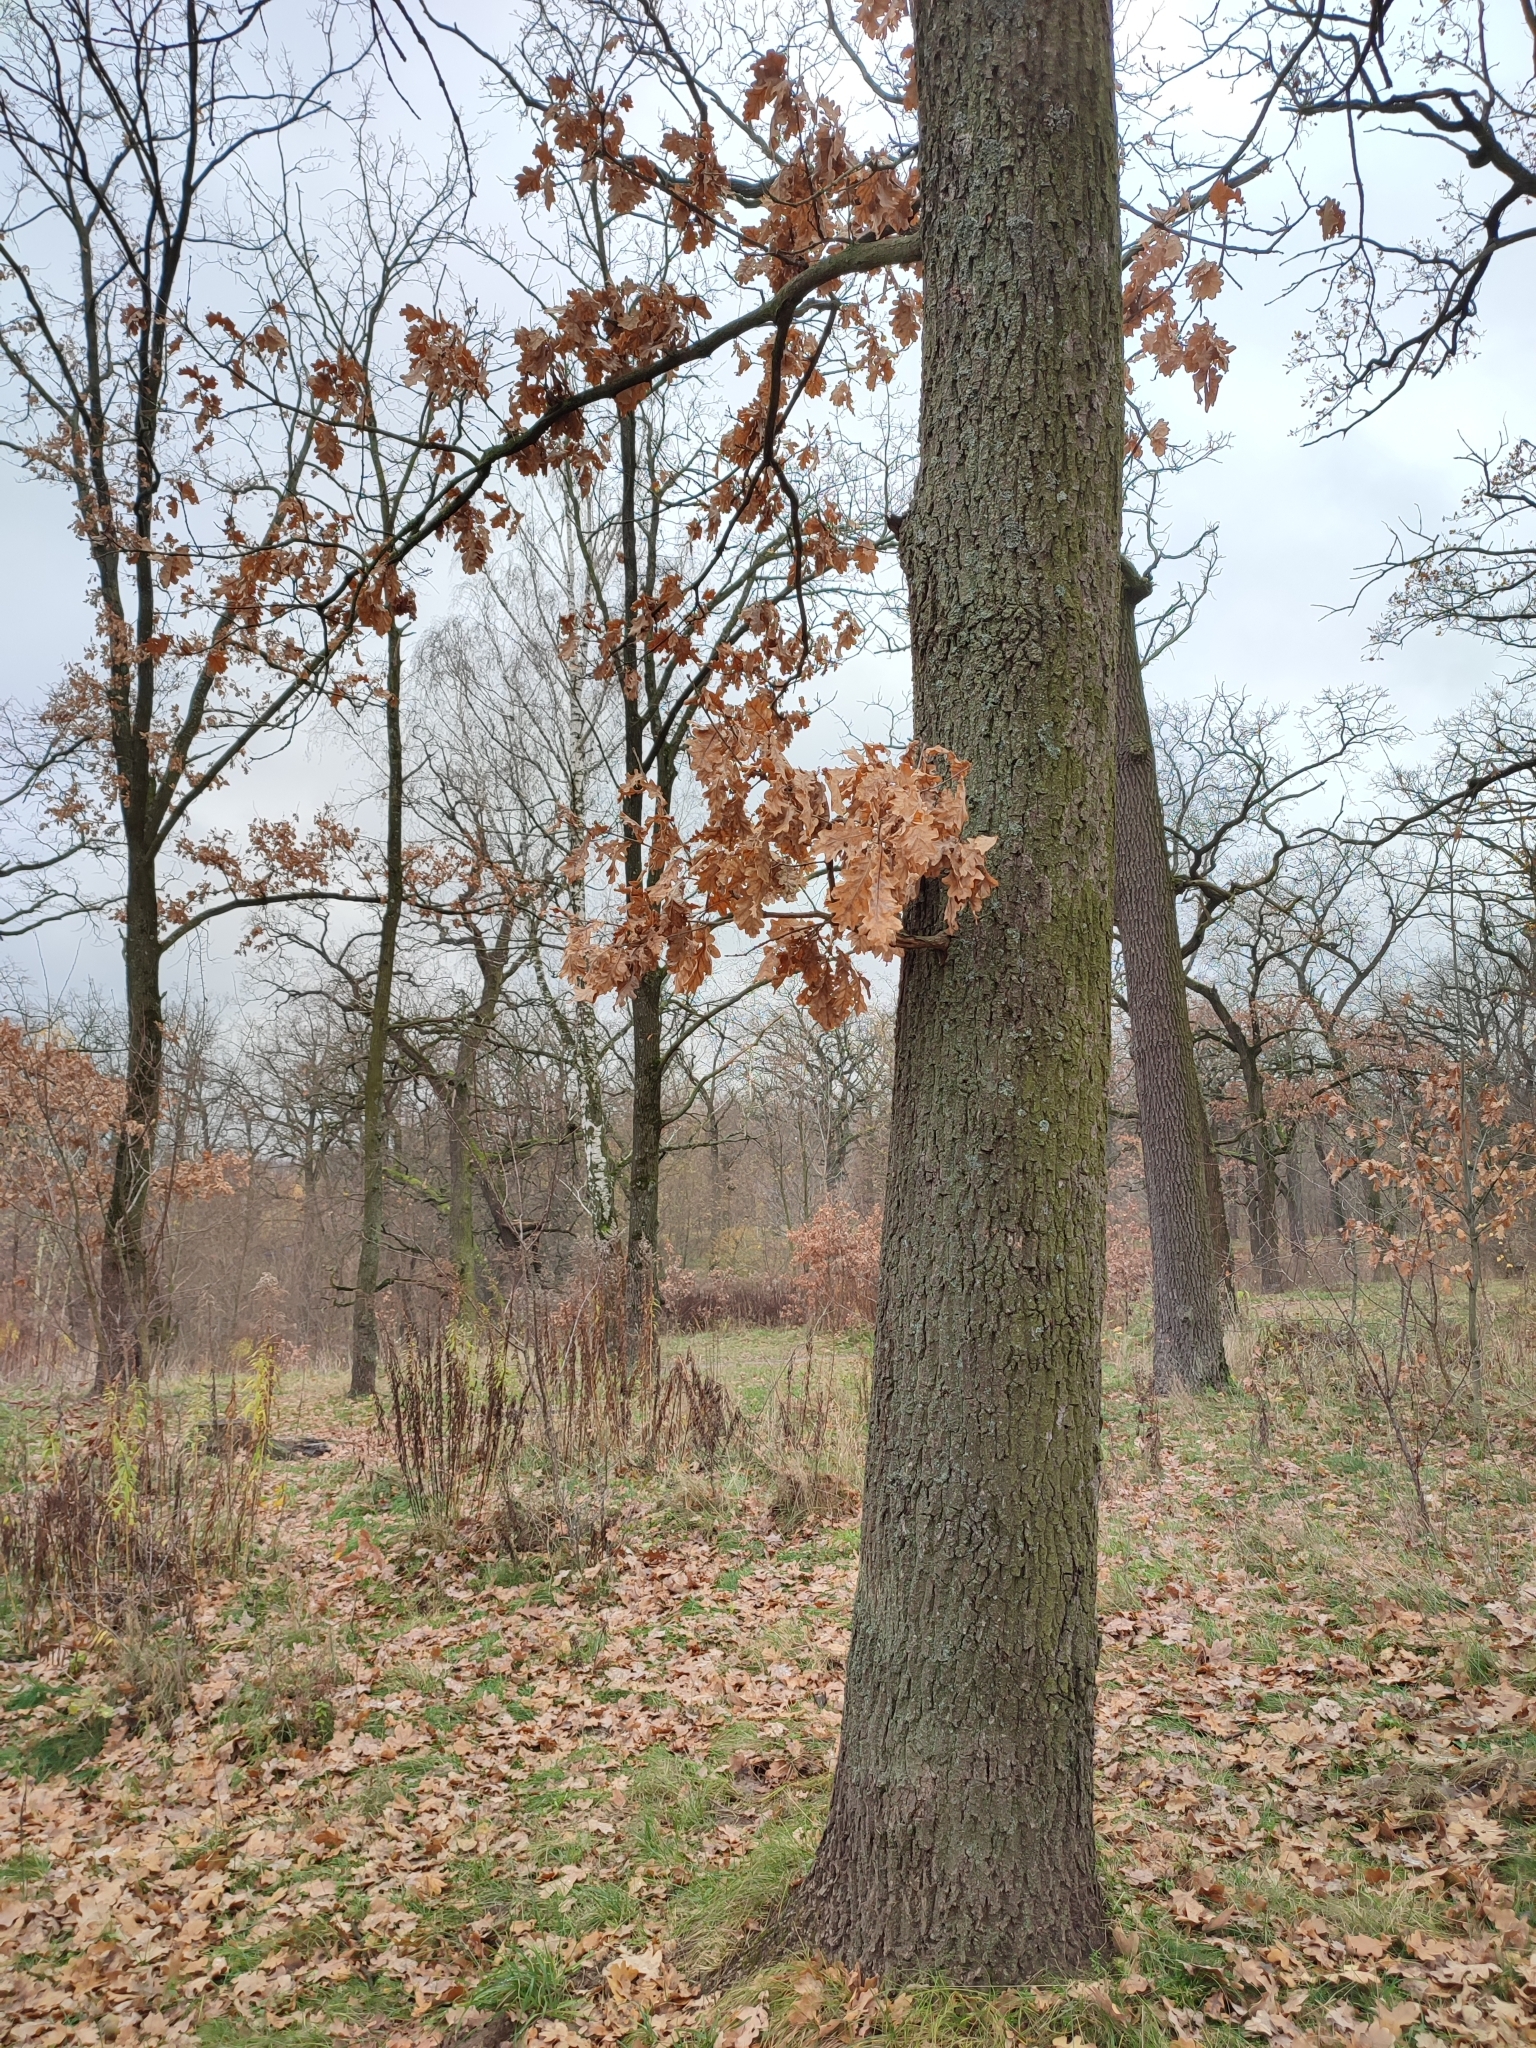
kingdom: Plantae
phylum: Tracheophyta
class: Magnoliopsida
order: Fagales
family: Fagaceae
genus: Quercus
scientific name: Quercus robur
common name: Pedunculate oak
